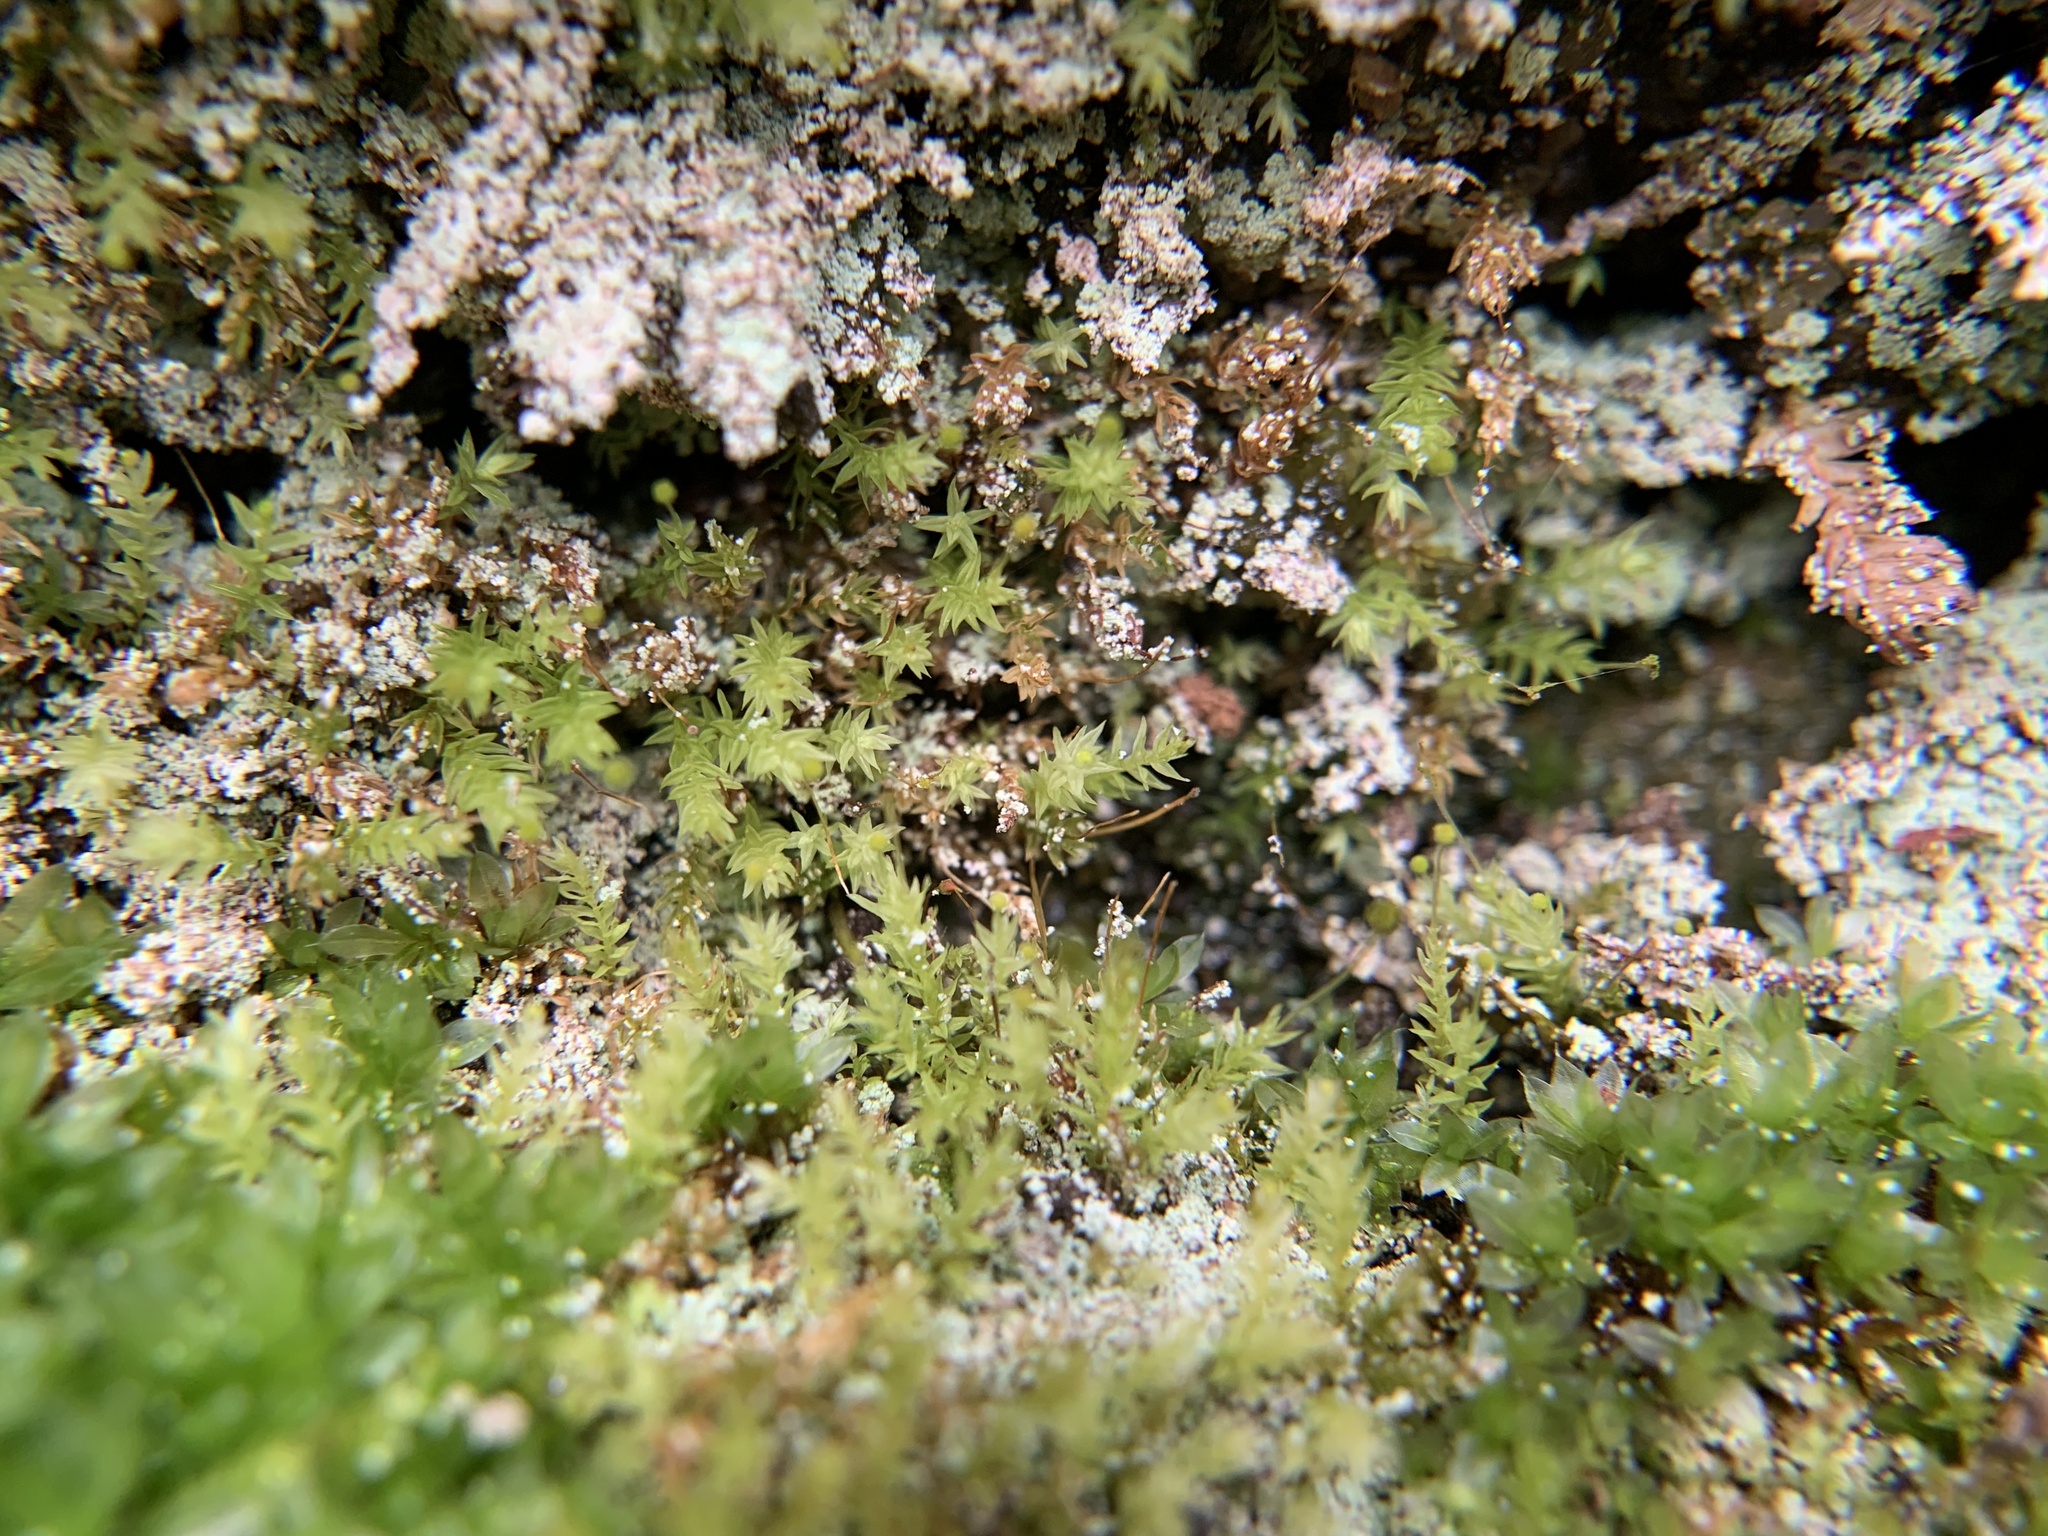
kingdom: Plantae
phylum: Bryophyta
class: Bryopsida
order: Aulacomniales
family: Aulacomniaceae
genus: Aulacomnium
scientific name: Aulacomnium androgynum
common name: Little groove moss
